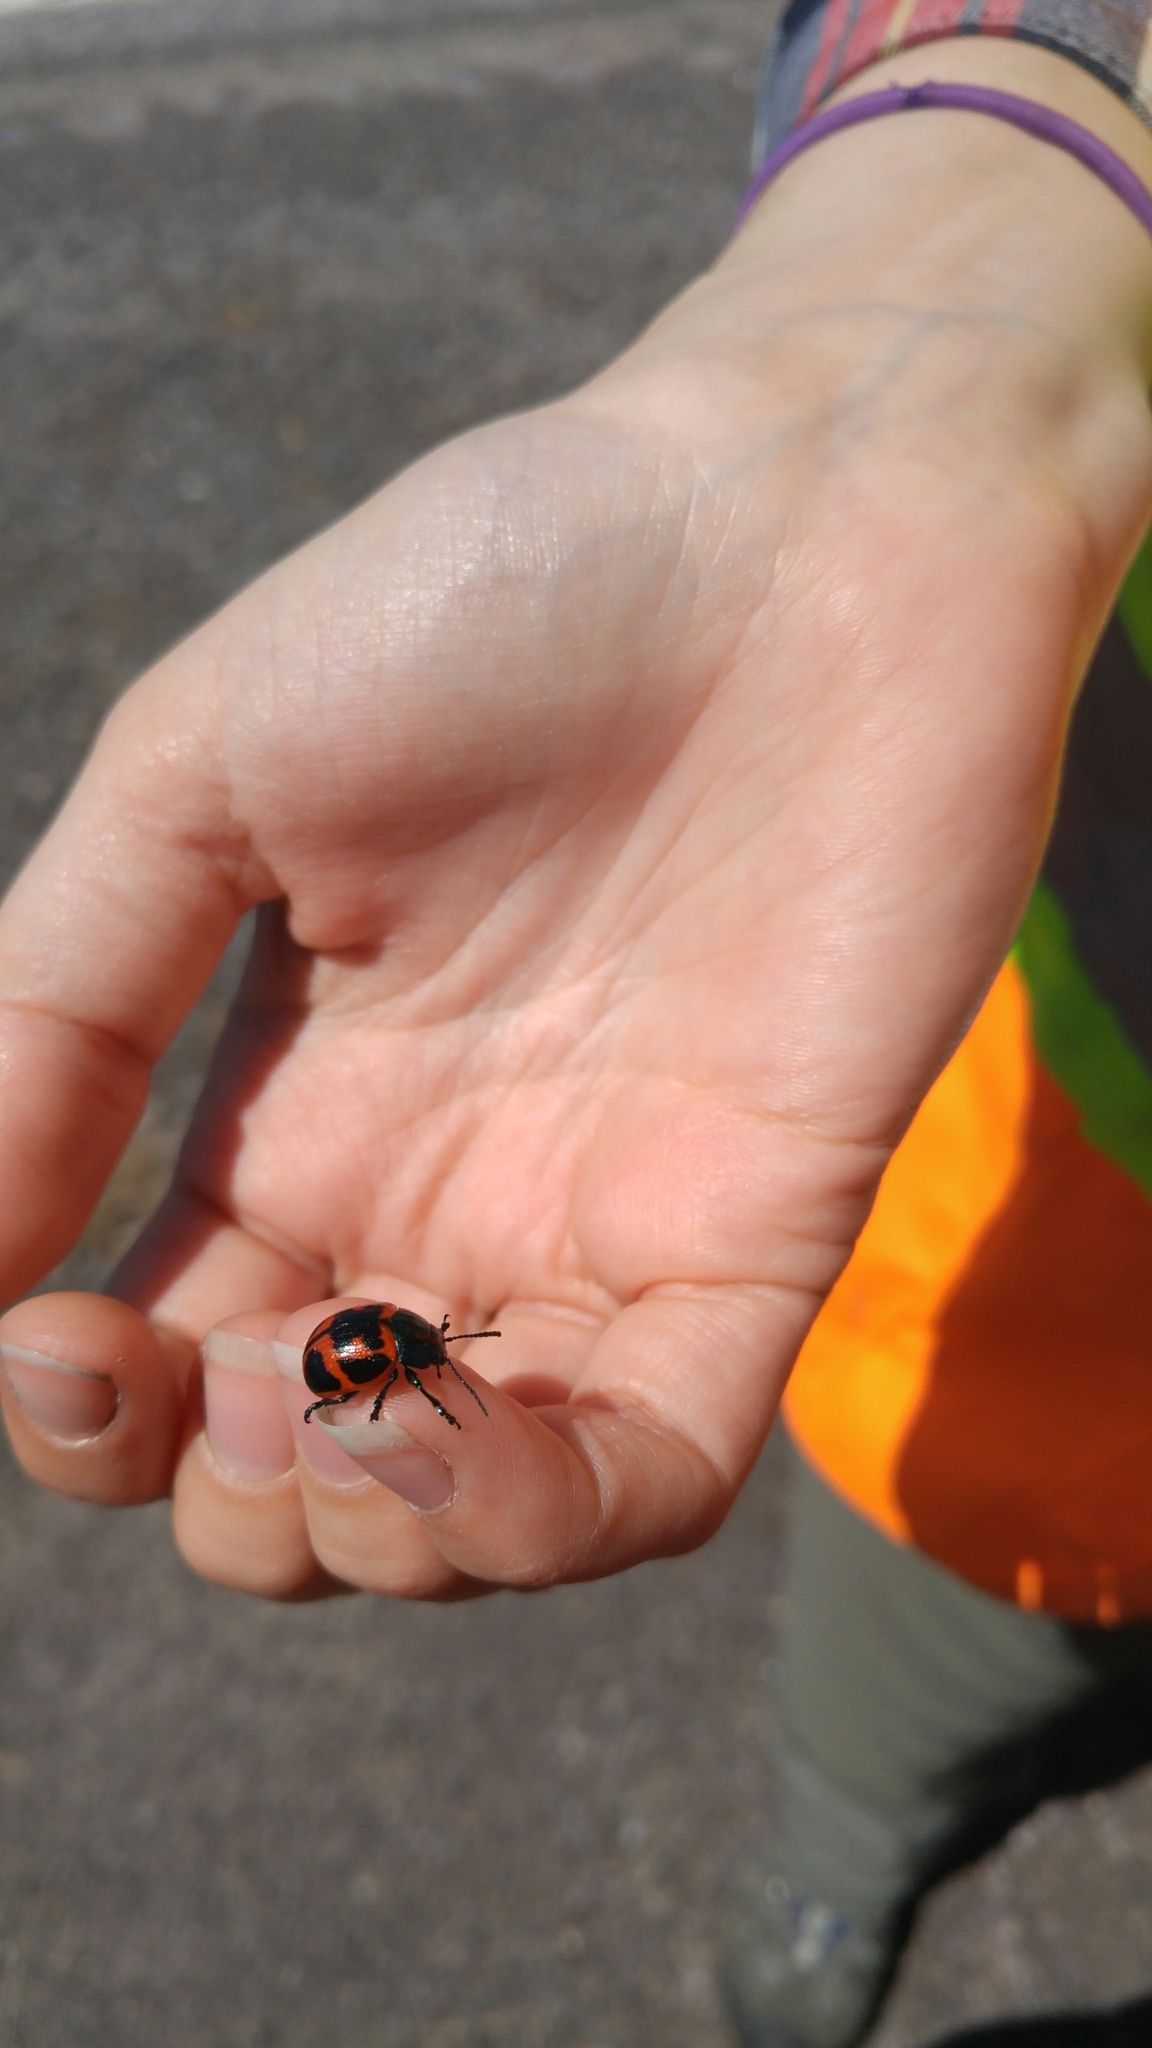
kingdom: Animalia
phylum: Arthropoda
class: Insecta
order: Coleoptera
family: Chrysomelidae
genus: Labidomera
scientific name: Labidomera clivicollis
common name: Swamp milkweed leaf beetle
